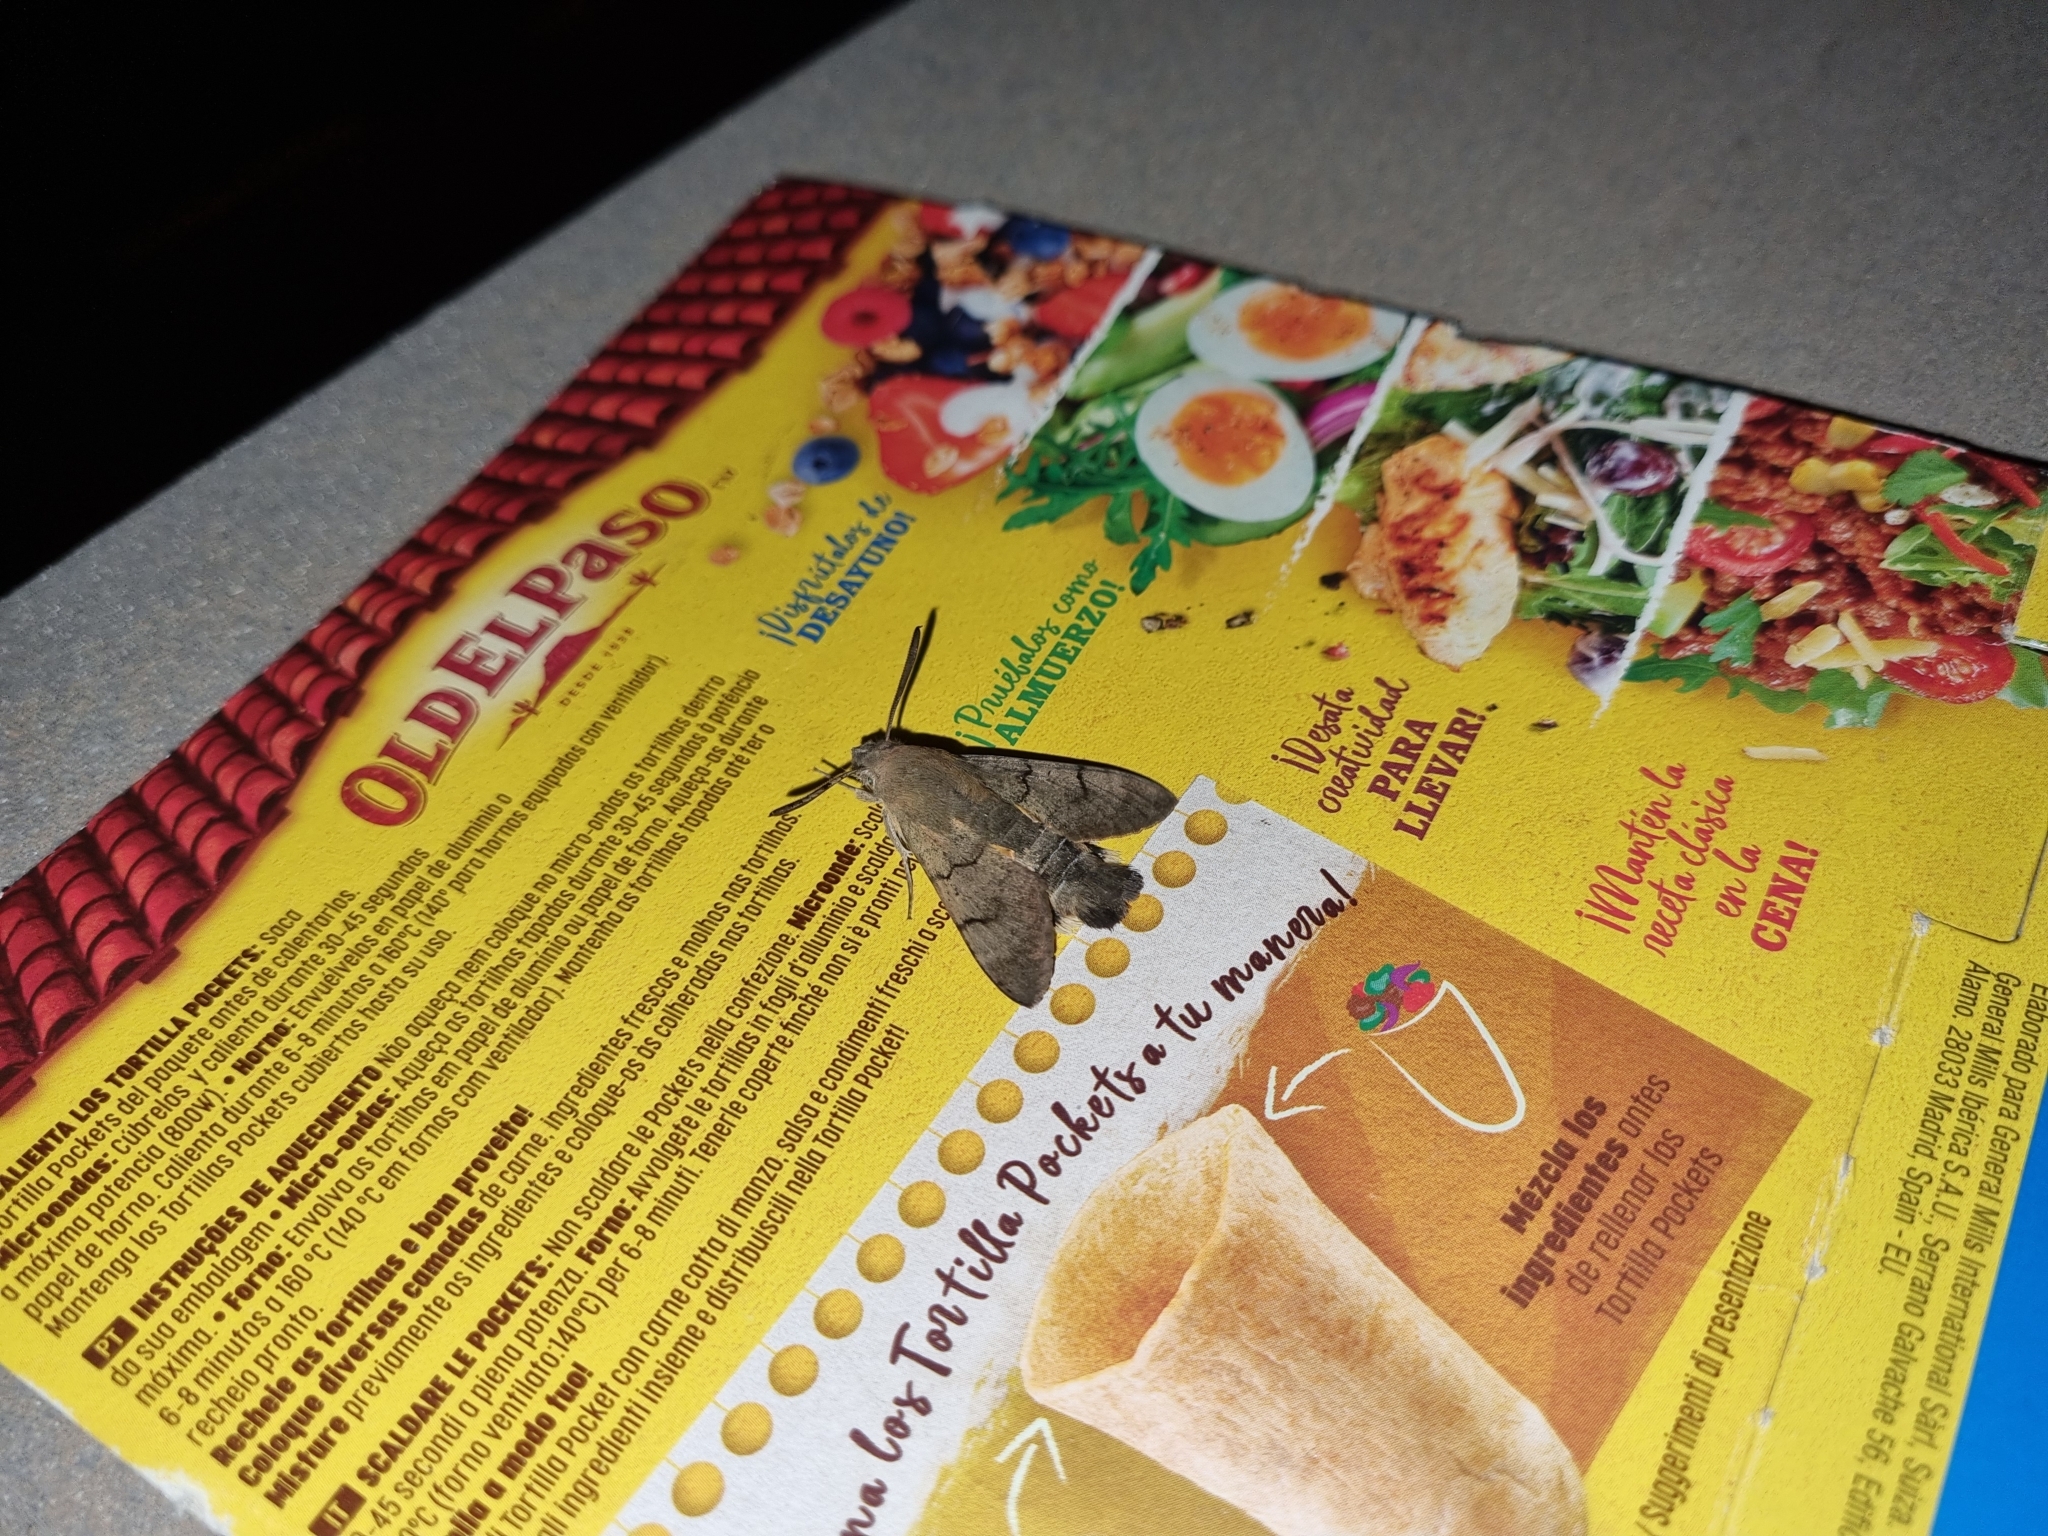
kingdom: Animalia
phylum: Arthropoda
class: Insecta
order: Lepidoptera
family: Sphingidae
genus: Macroglossum
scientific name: Macroglossum stellatarum
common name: Humming-bird hawk-moth
